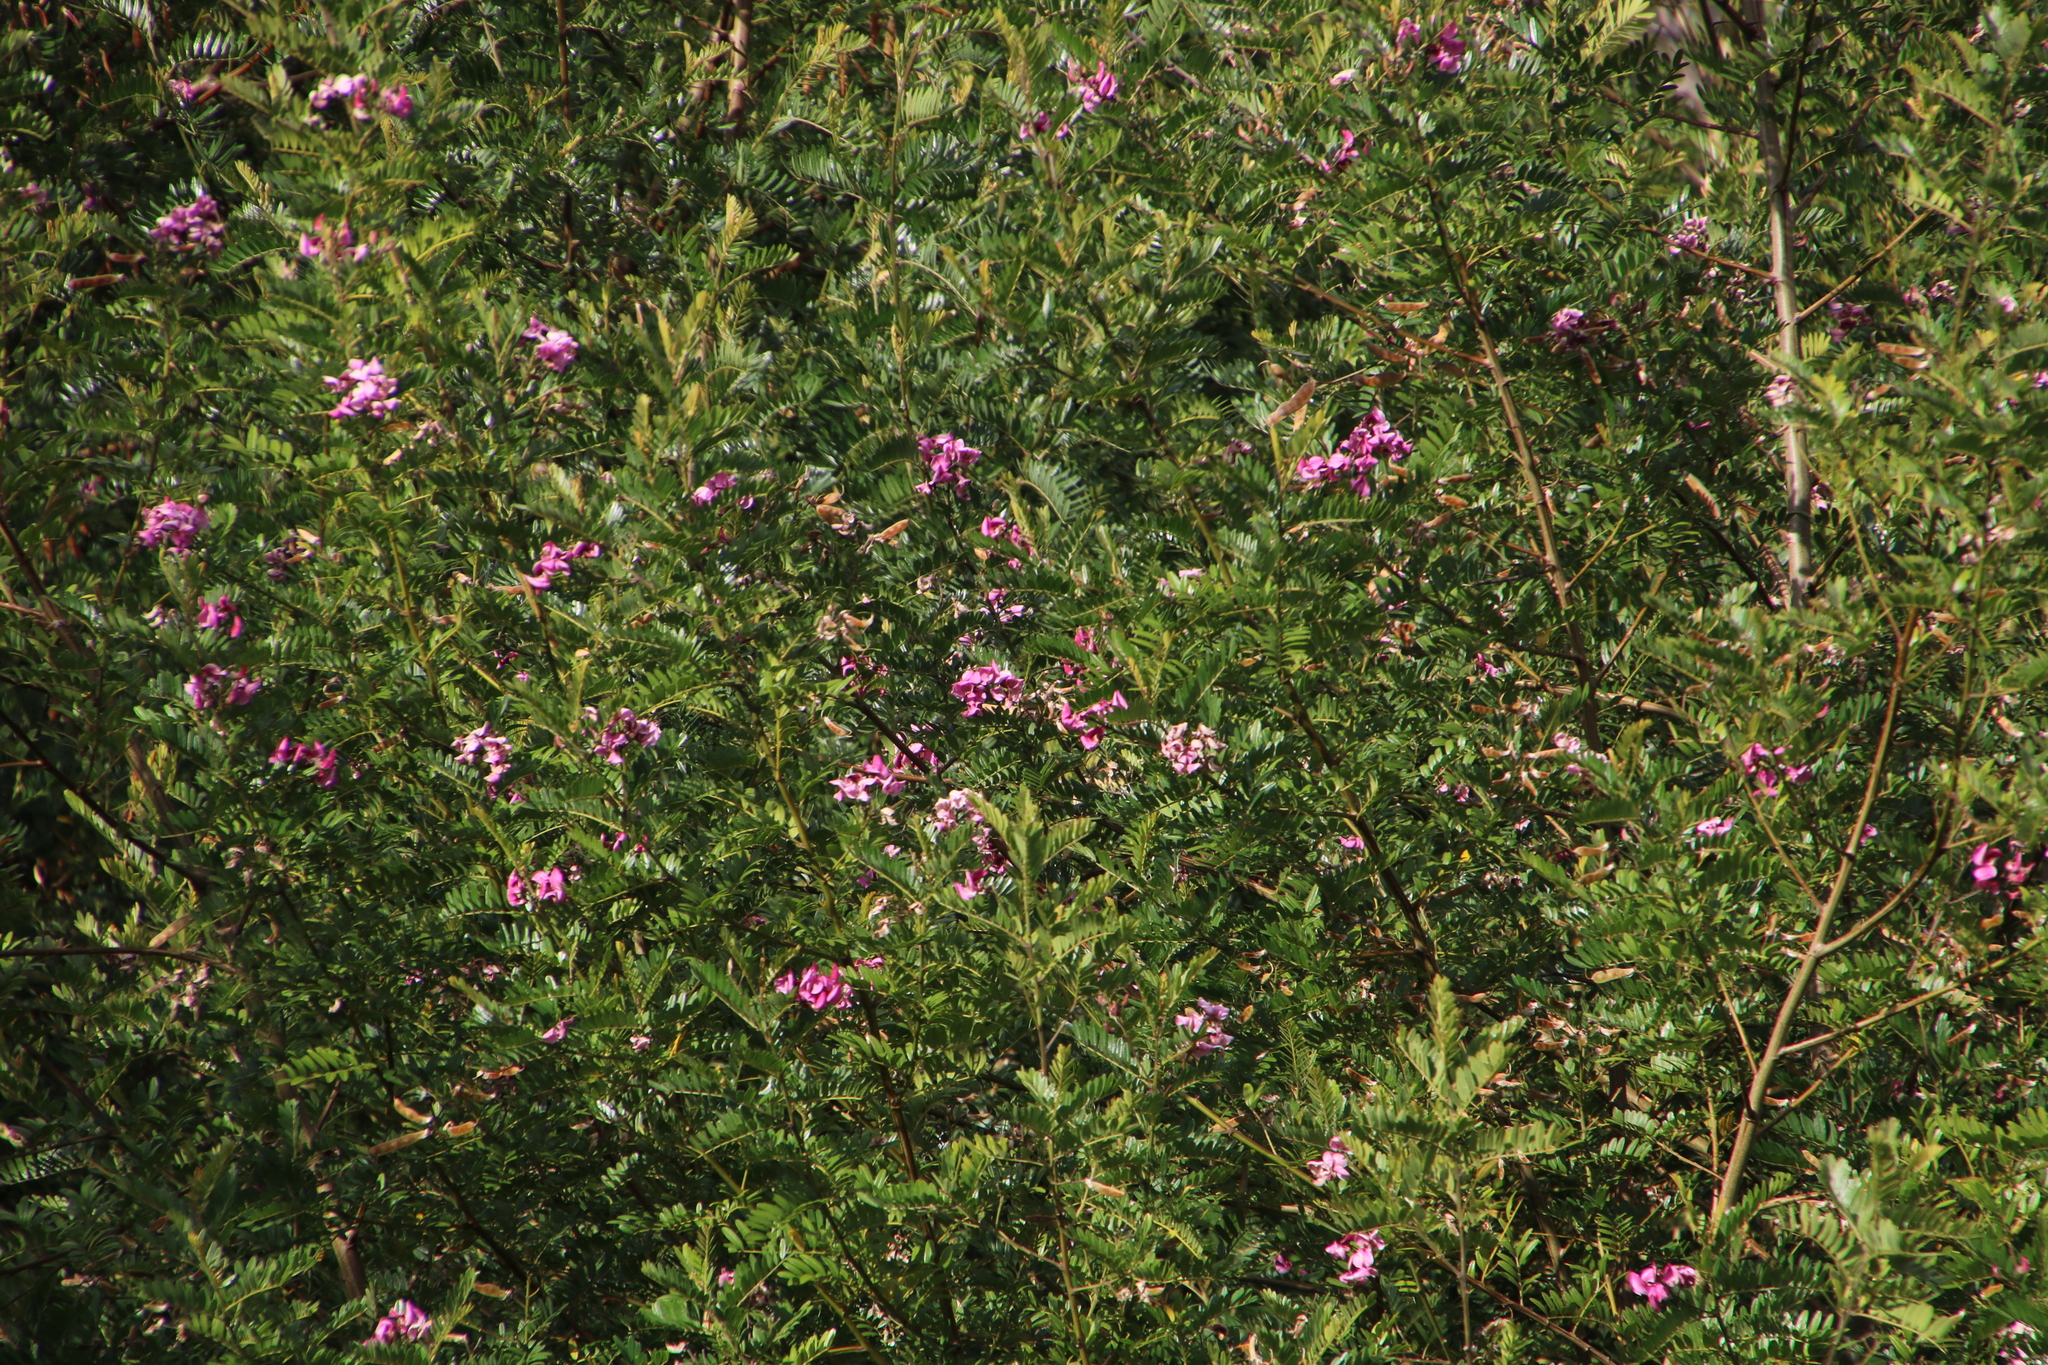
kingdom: Plantae
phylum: Tracheophyta
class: Magnoliopsida
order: Fabales
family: Fabaceae
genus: Virgilia
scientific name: Virgilia oroboides
